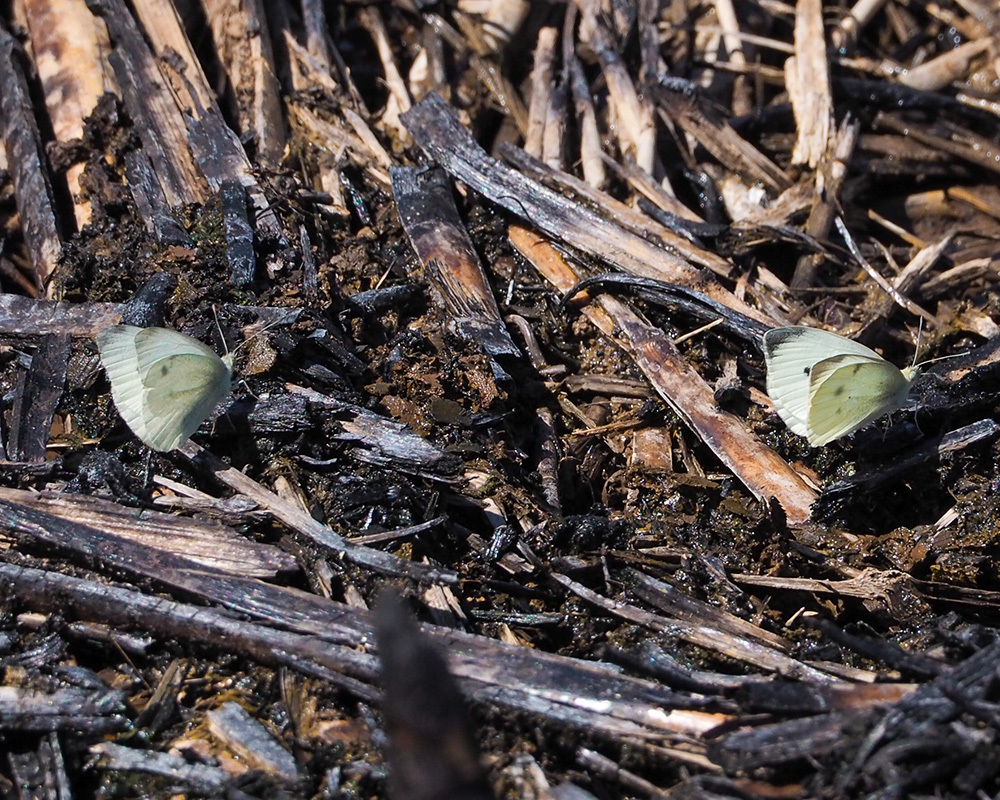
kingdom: Animalia
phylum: Arthropoda
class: Insecta
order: Lepidoptera
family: Pieridae
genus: Pieris
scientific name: Pieris rapae
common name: Small white
